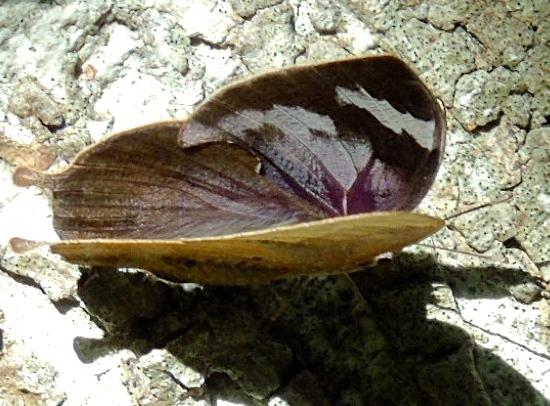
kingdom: Animalia
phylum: Arthropoda
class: Insecta
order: Lepidoptera
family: Nymphalidae
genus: Memphis
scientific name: Memphis forreri
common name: Forrer's leafwing
